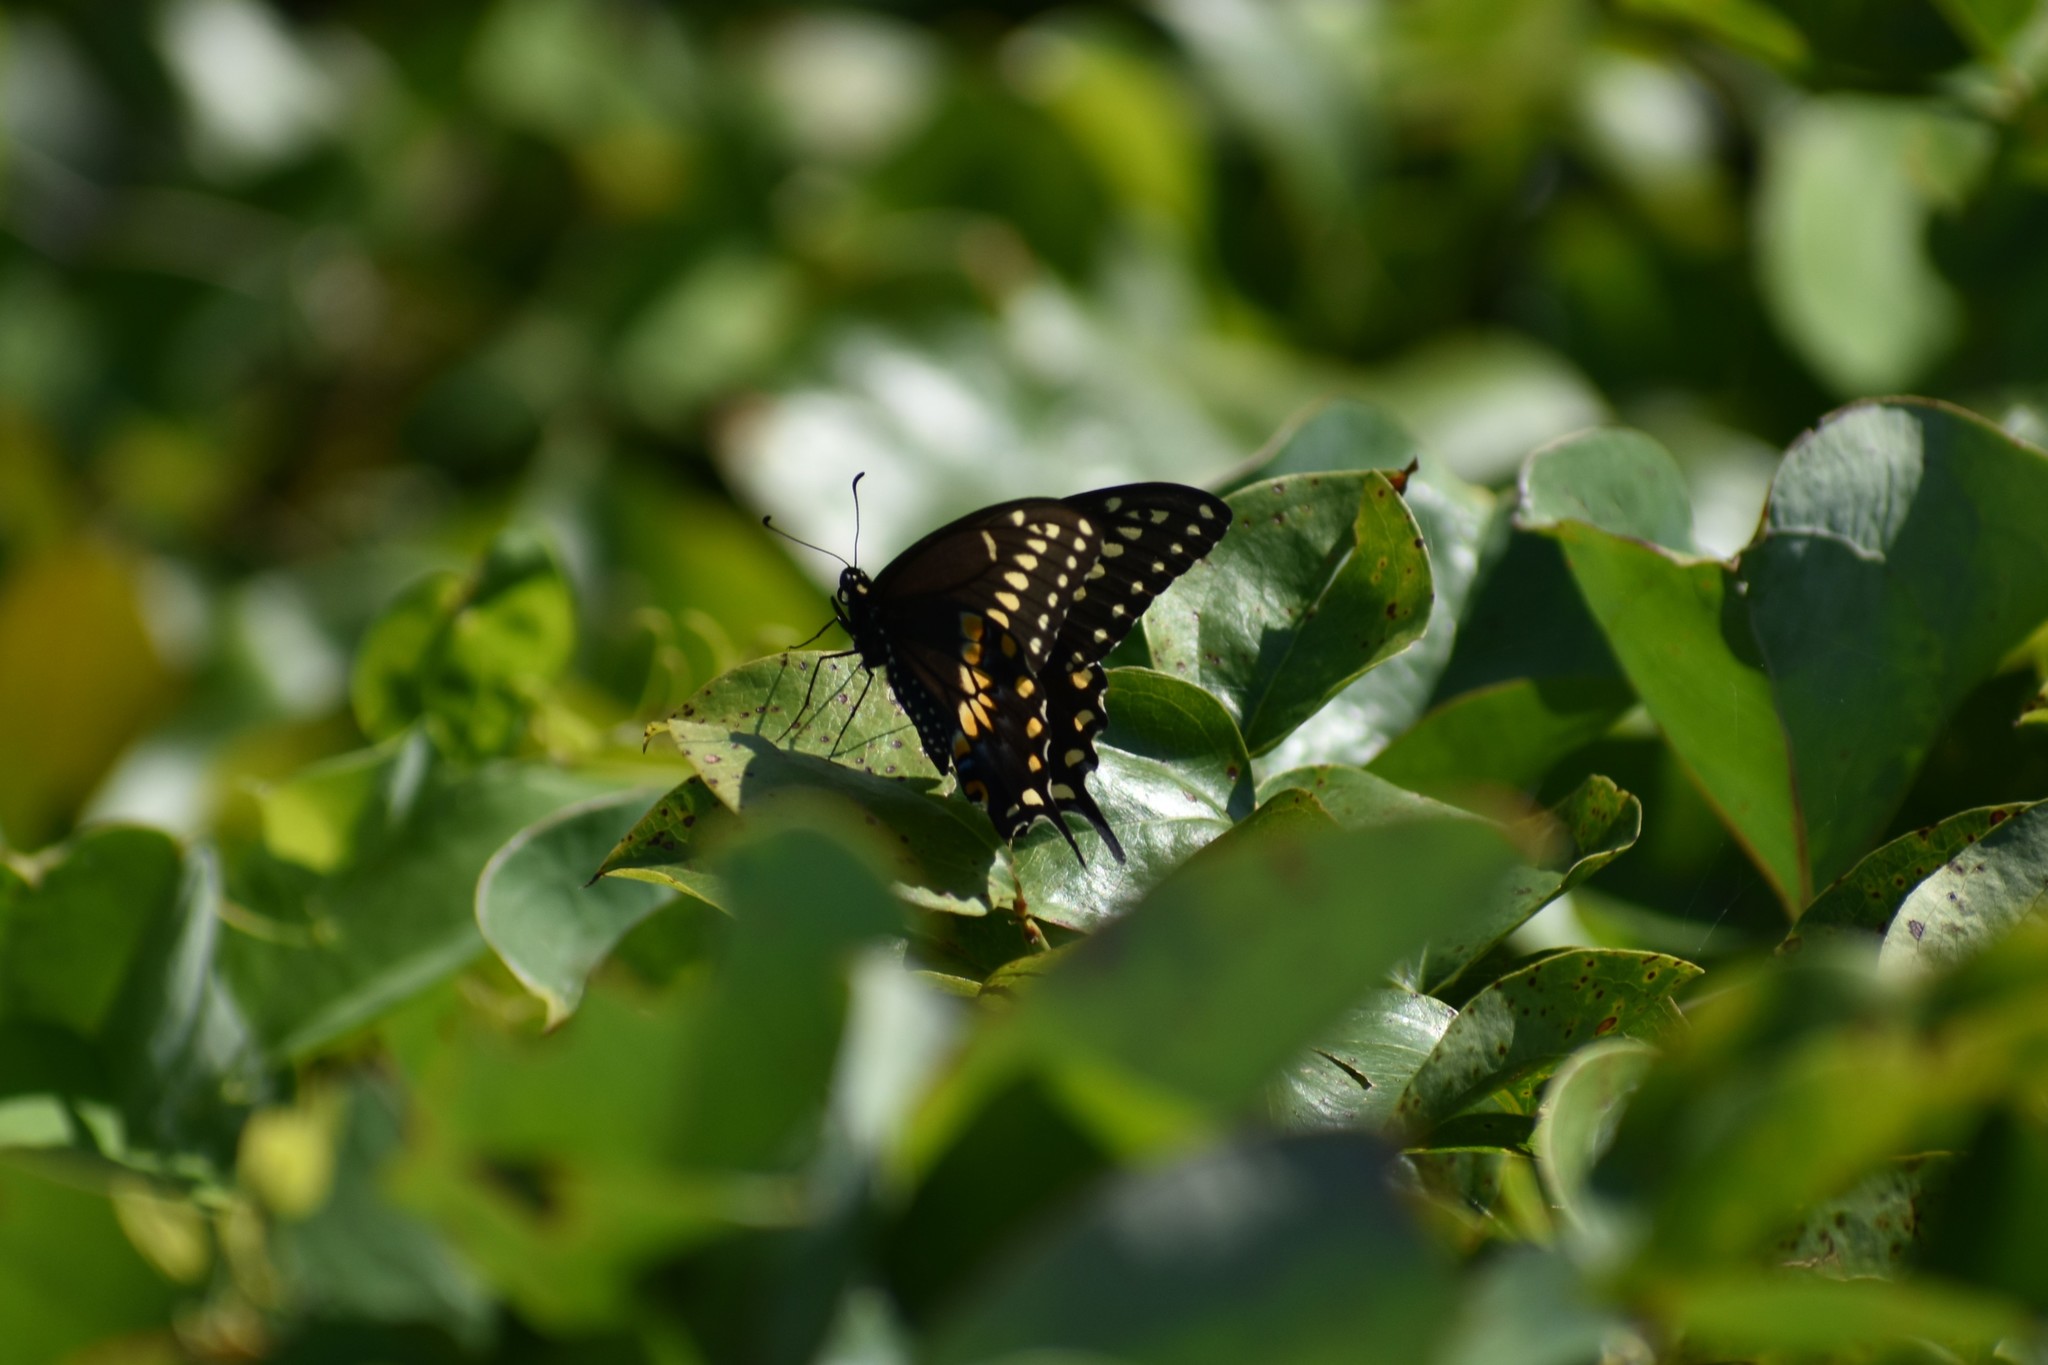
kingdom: Animalia
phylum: Arthropoda
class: Insecta
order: Lepidoptera
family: Papilionidae
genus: Papilio
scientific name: Papilio polyxenes
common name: Black swallowtail
